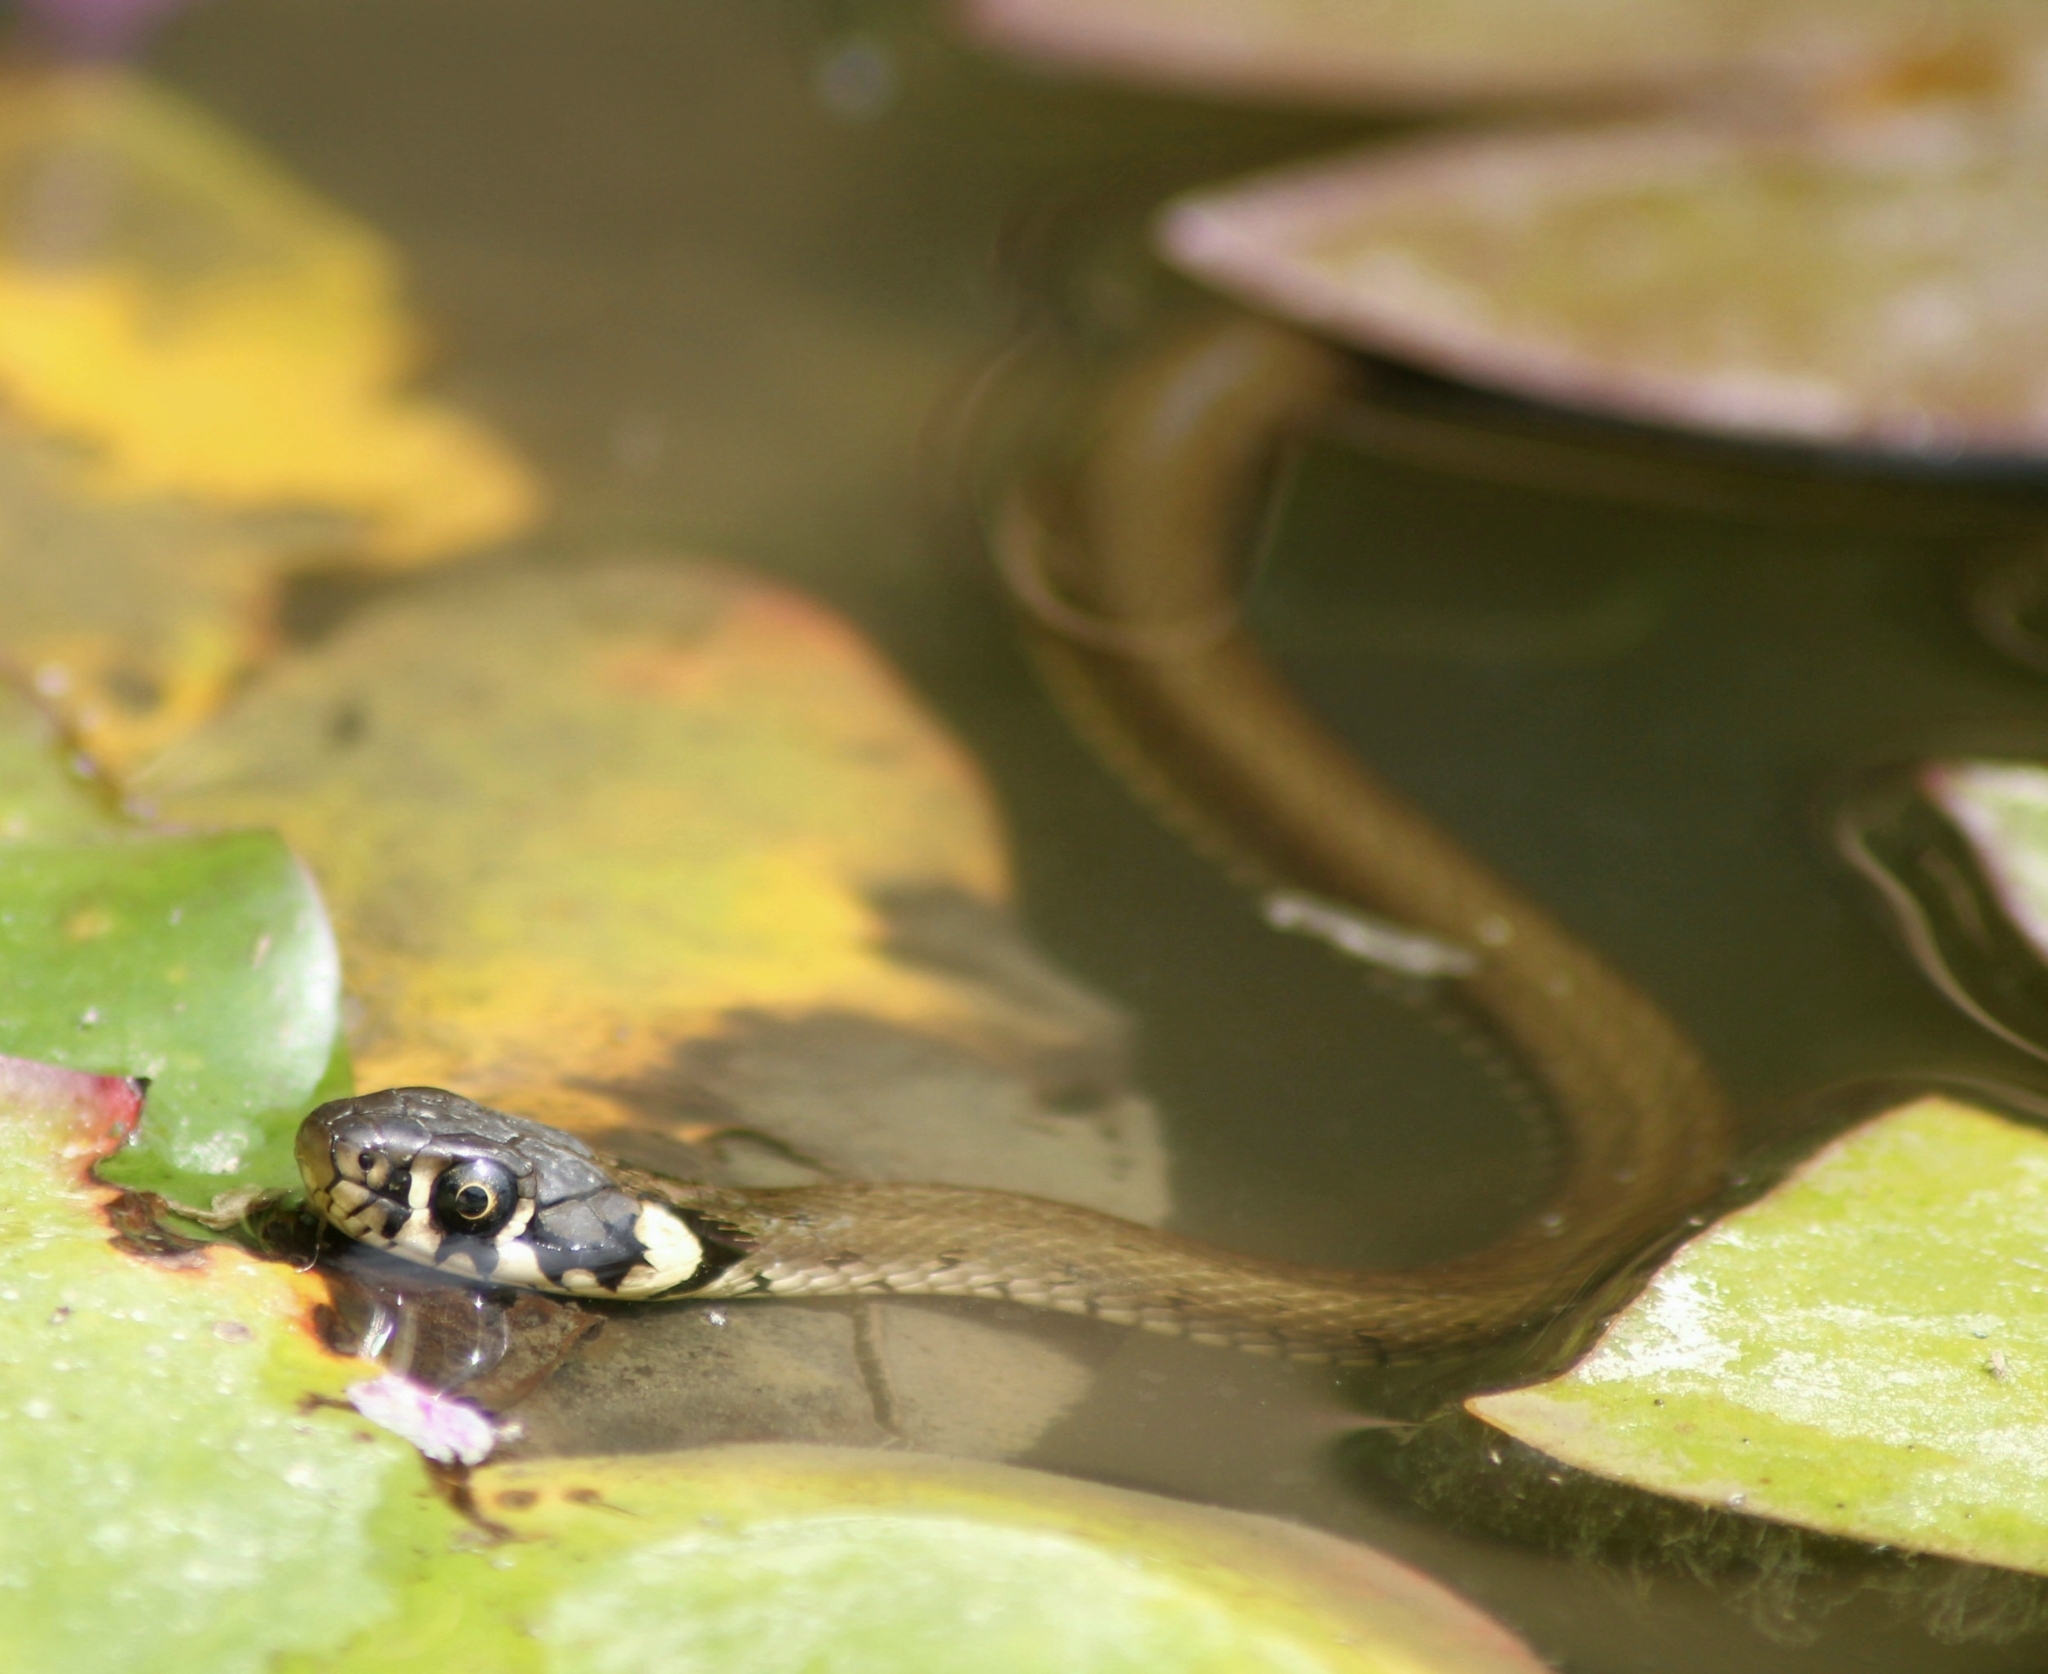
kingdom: Animalia
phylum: Chordata
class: Squamata
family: Colubridae
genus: Natrix
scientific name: Natrix natrix
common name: Grass snake
